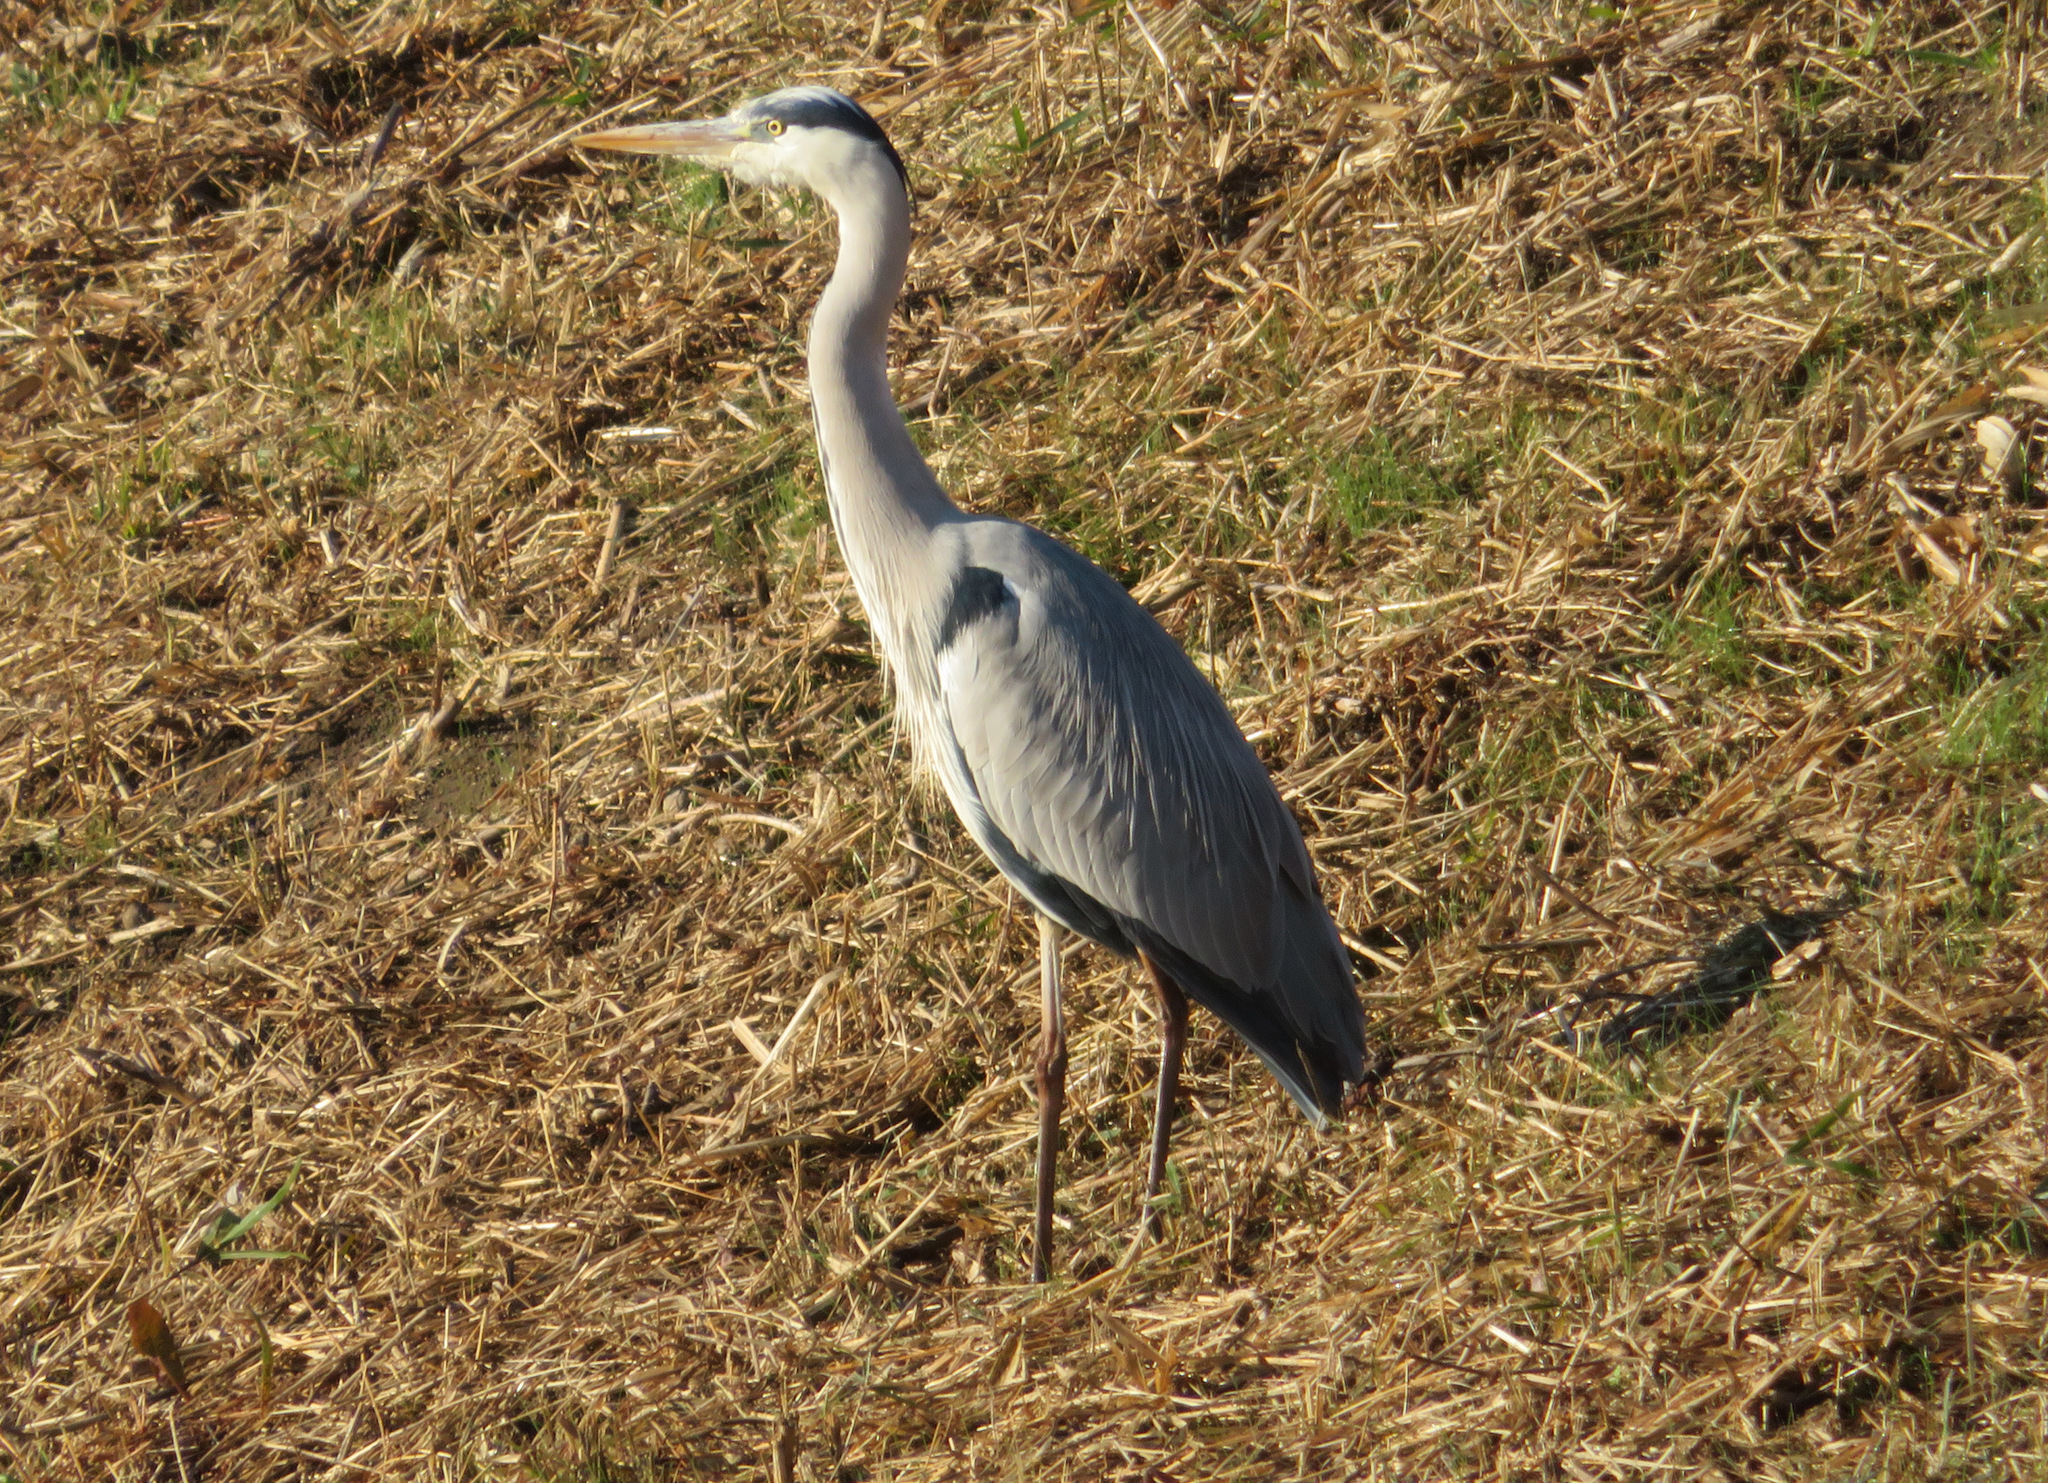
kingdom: Animalia
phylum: Chordata
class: Aves
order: Pelecaniformes
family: Ardeidae
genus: Ardea
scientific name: Ardea cinerea
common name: Grey heron
